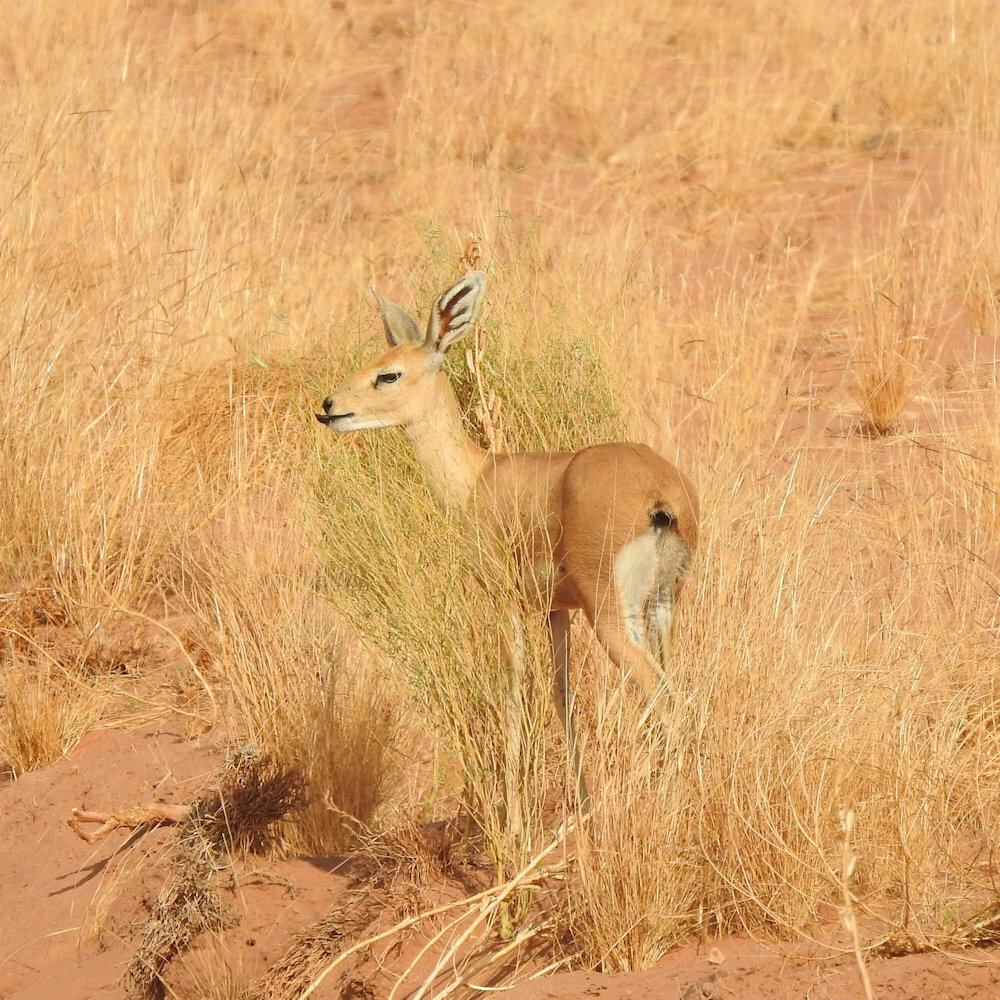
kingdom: Animalia
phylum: Chordata
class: Mammalia
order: Artiodactyla
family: Bovidae
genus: Raphicerus
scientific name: Raphicerus campestris
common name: Steenbok
